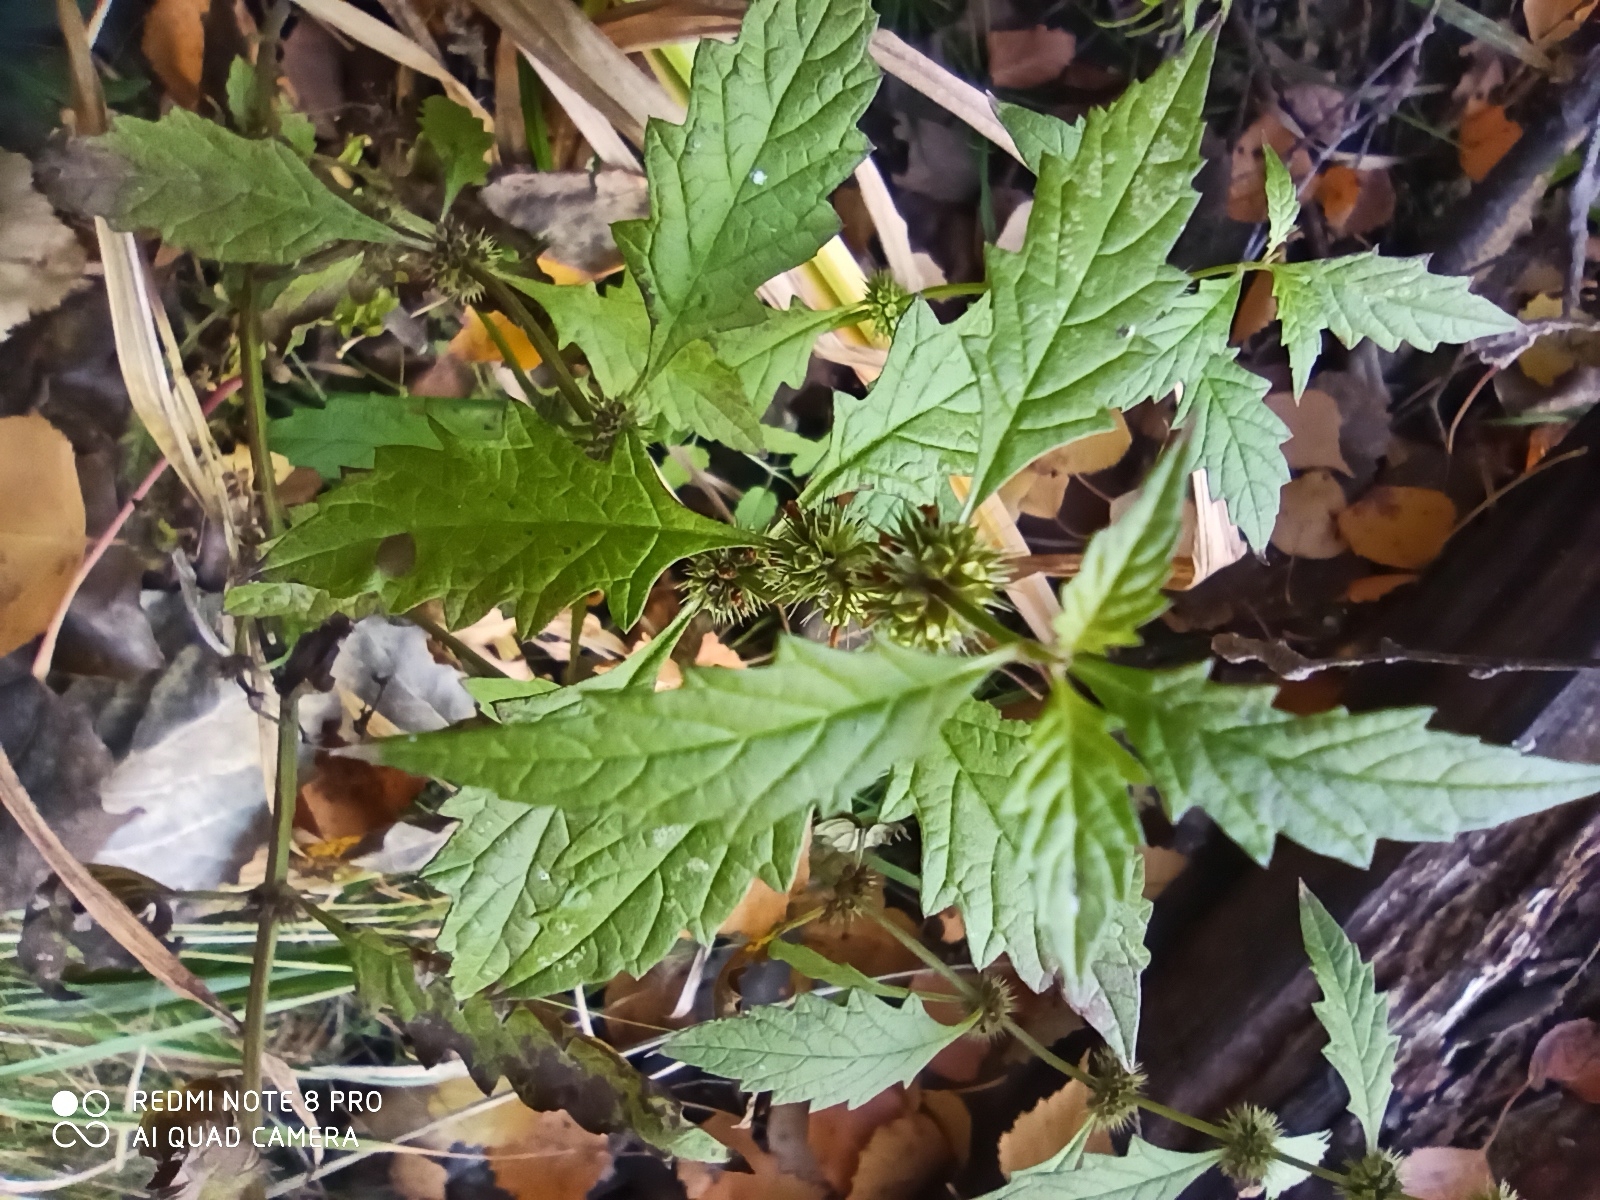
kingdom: Plantae
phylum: Tracheophyta
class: Magnoliopsida
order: Lamiales
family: Lamiaceae
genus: Lycopus
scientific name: Lycopus europaeus
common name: European bugleweed
